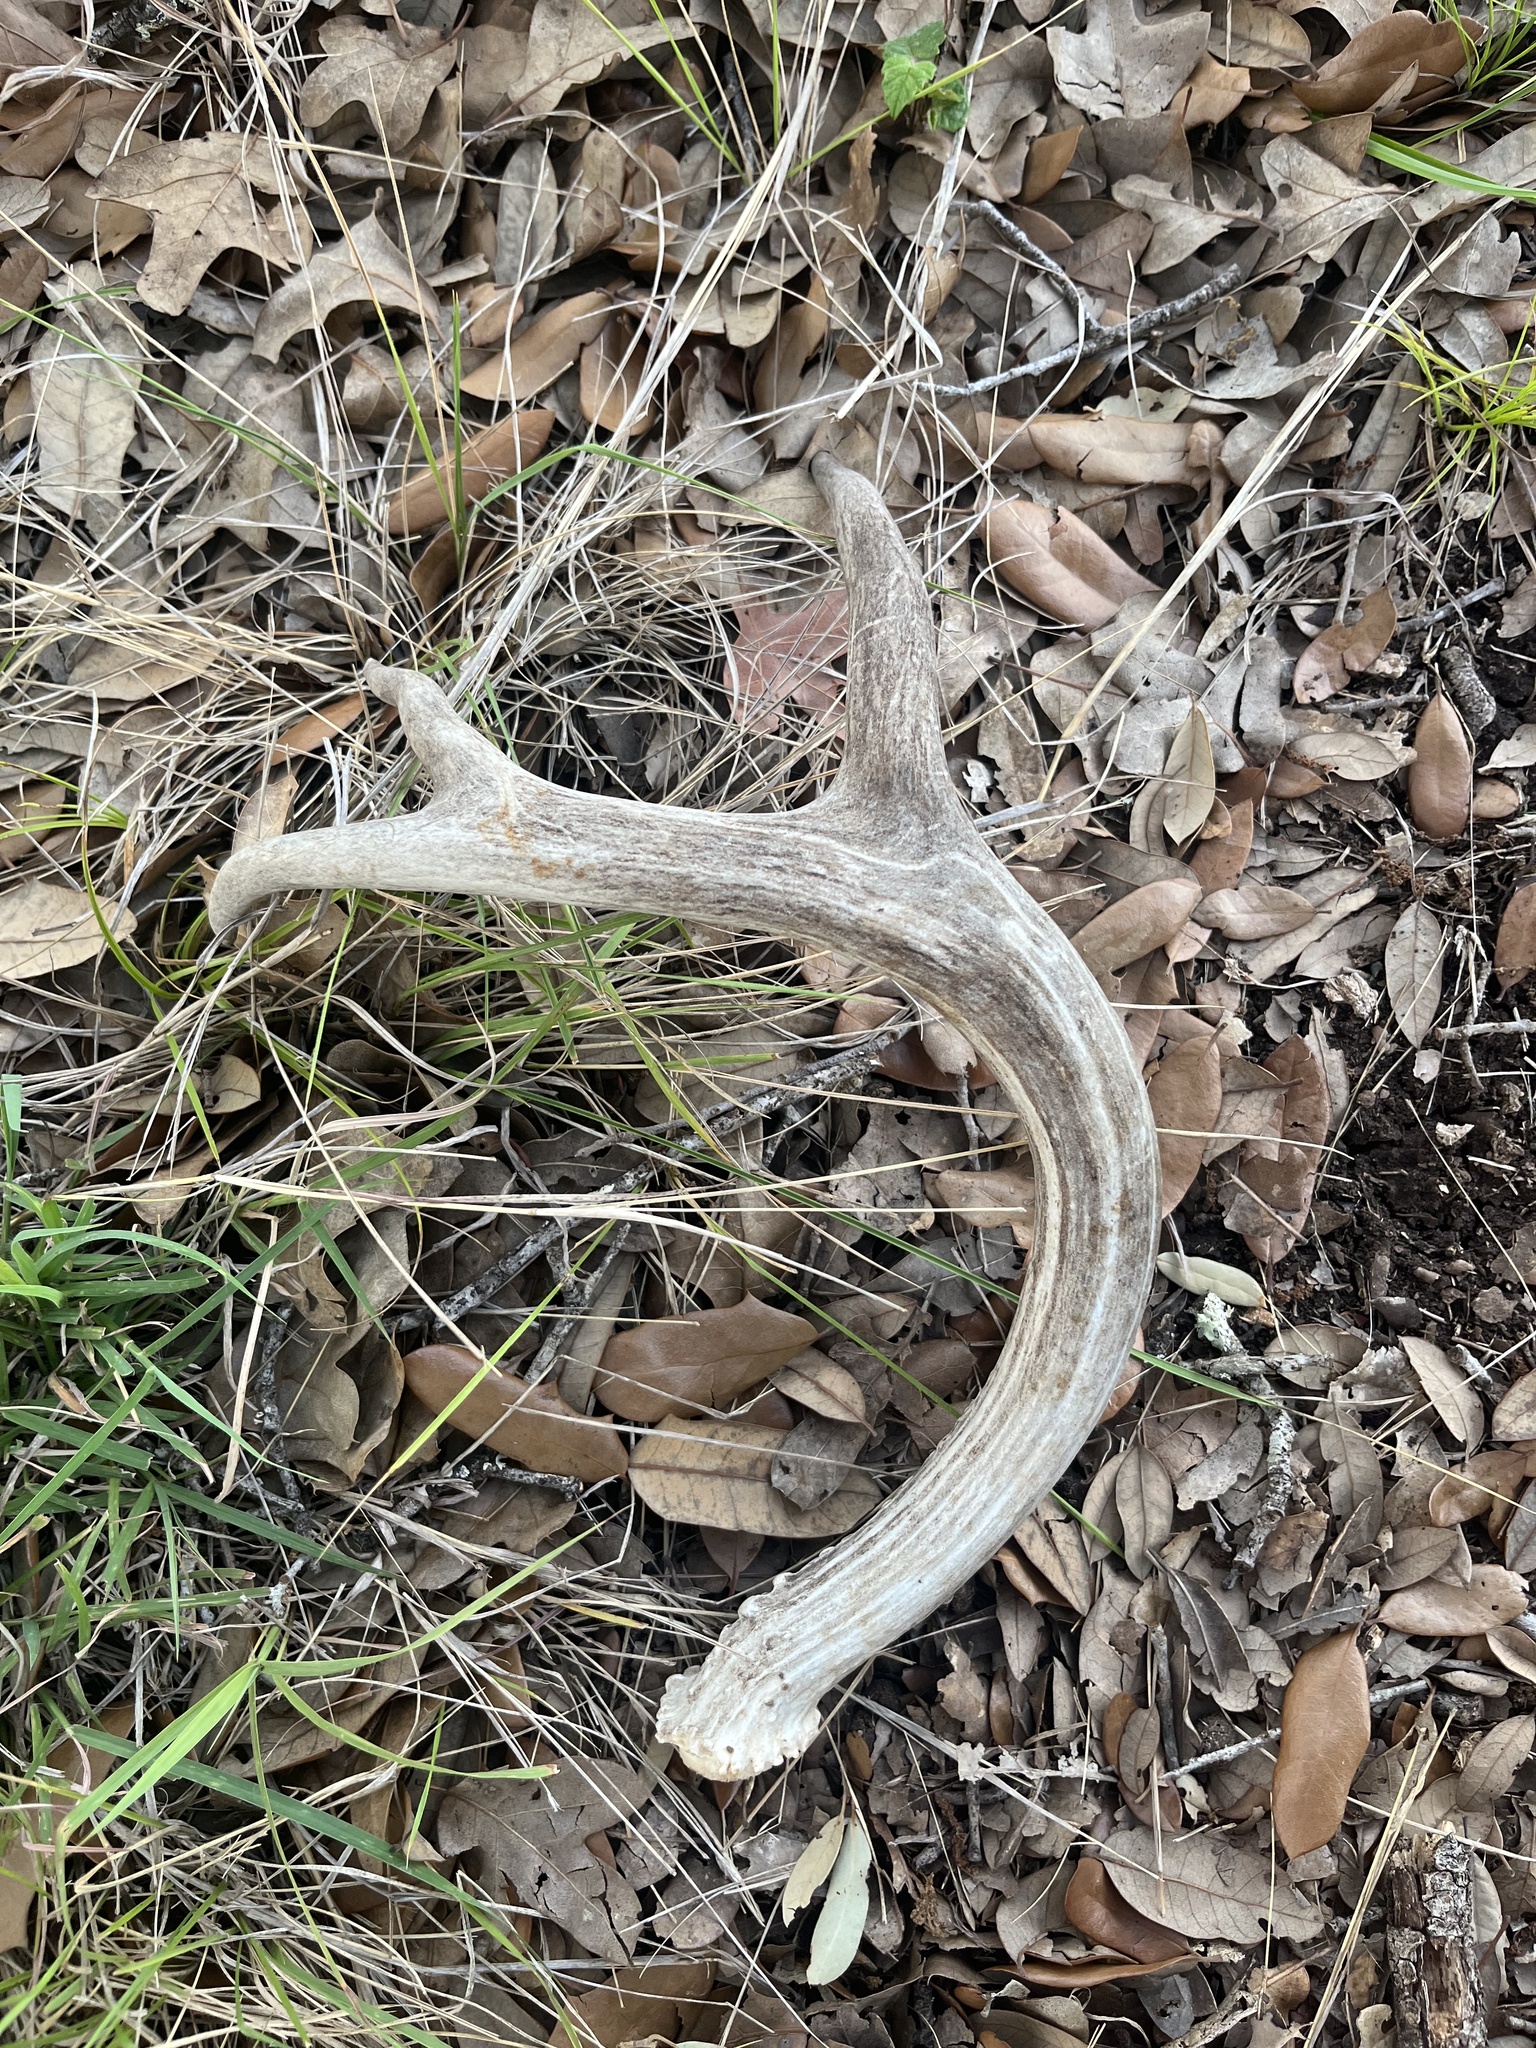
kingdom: Animalia
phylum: Chordata
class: Mammalia
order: Artiodactyla
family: Cervidae
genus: Odocoileus
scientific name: Odocoileus virginianus
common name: White-tailed deer
